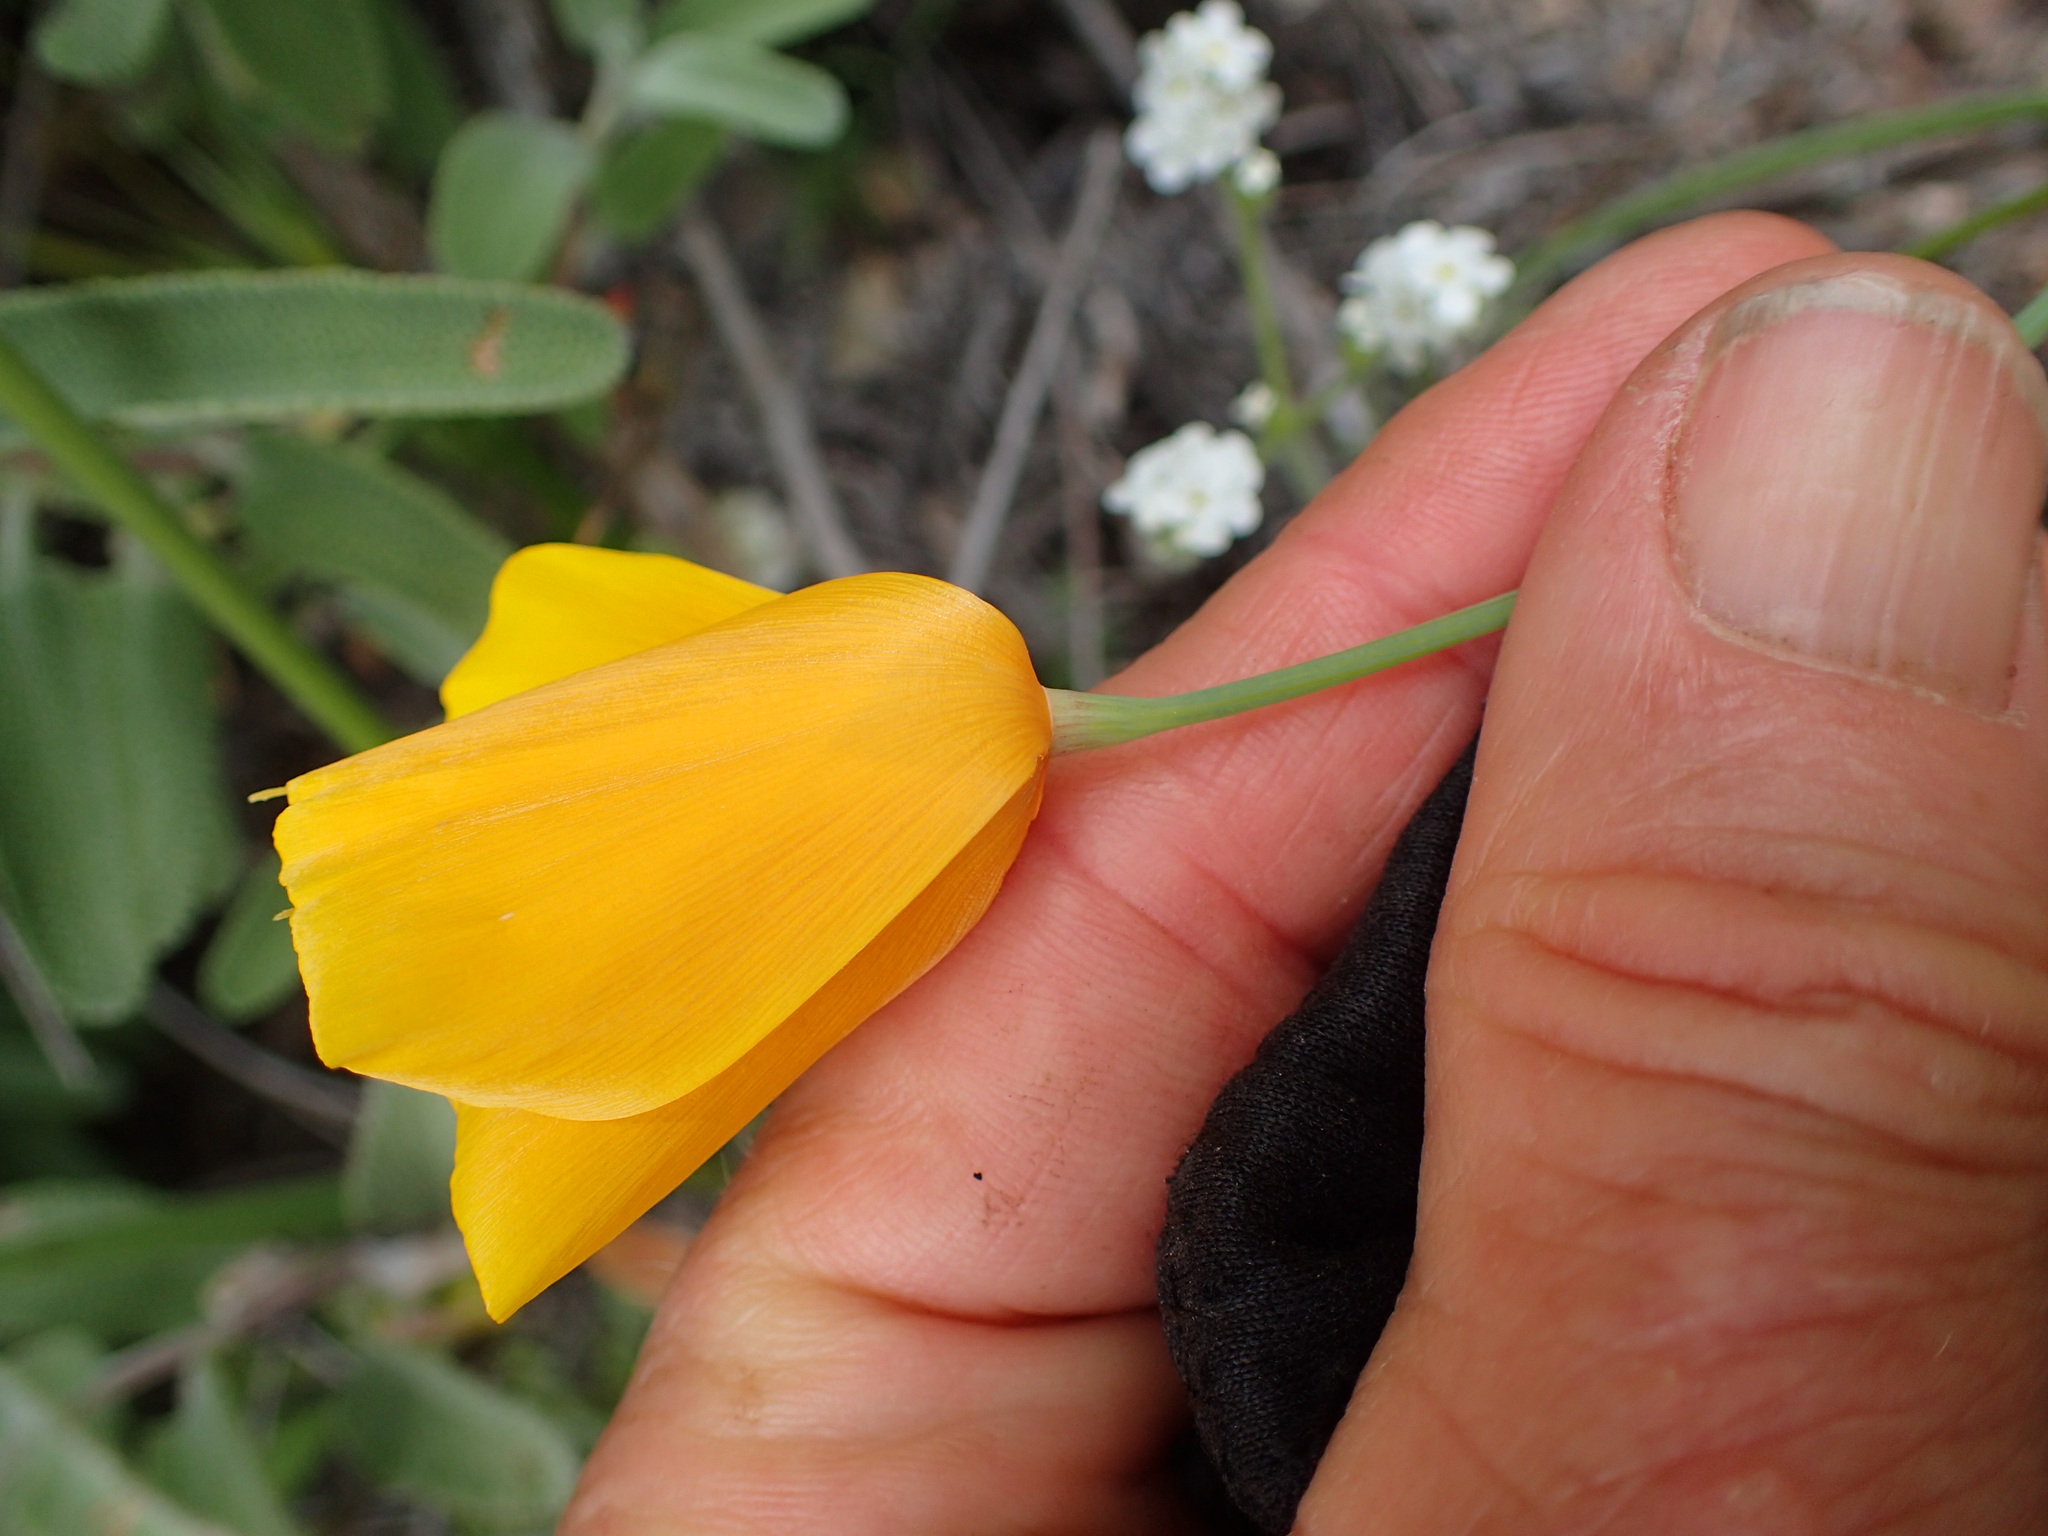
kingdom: Plantae
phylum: Tracheophyta
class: Magnoliopsida
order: Ranunculales
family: Papaveraceae
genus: Eschscholzia
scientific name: Eschscholzia caespitosa
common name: Tufted california-poppy
